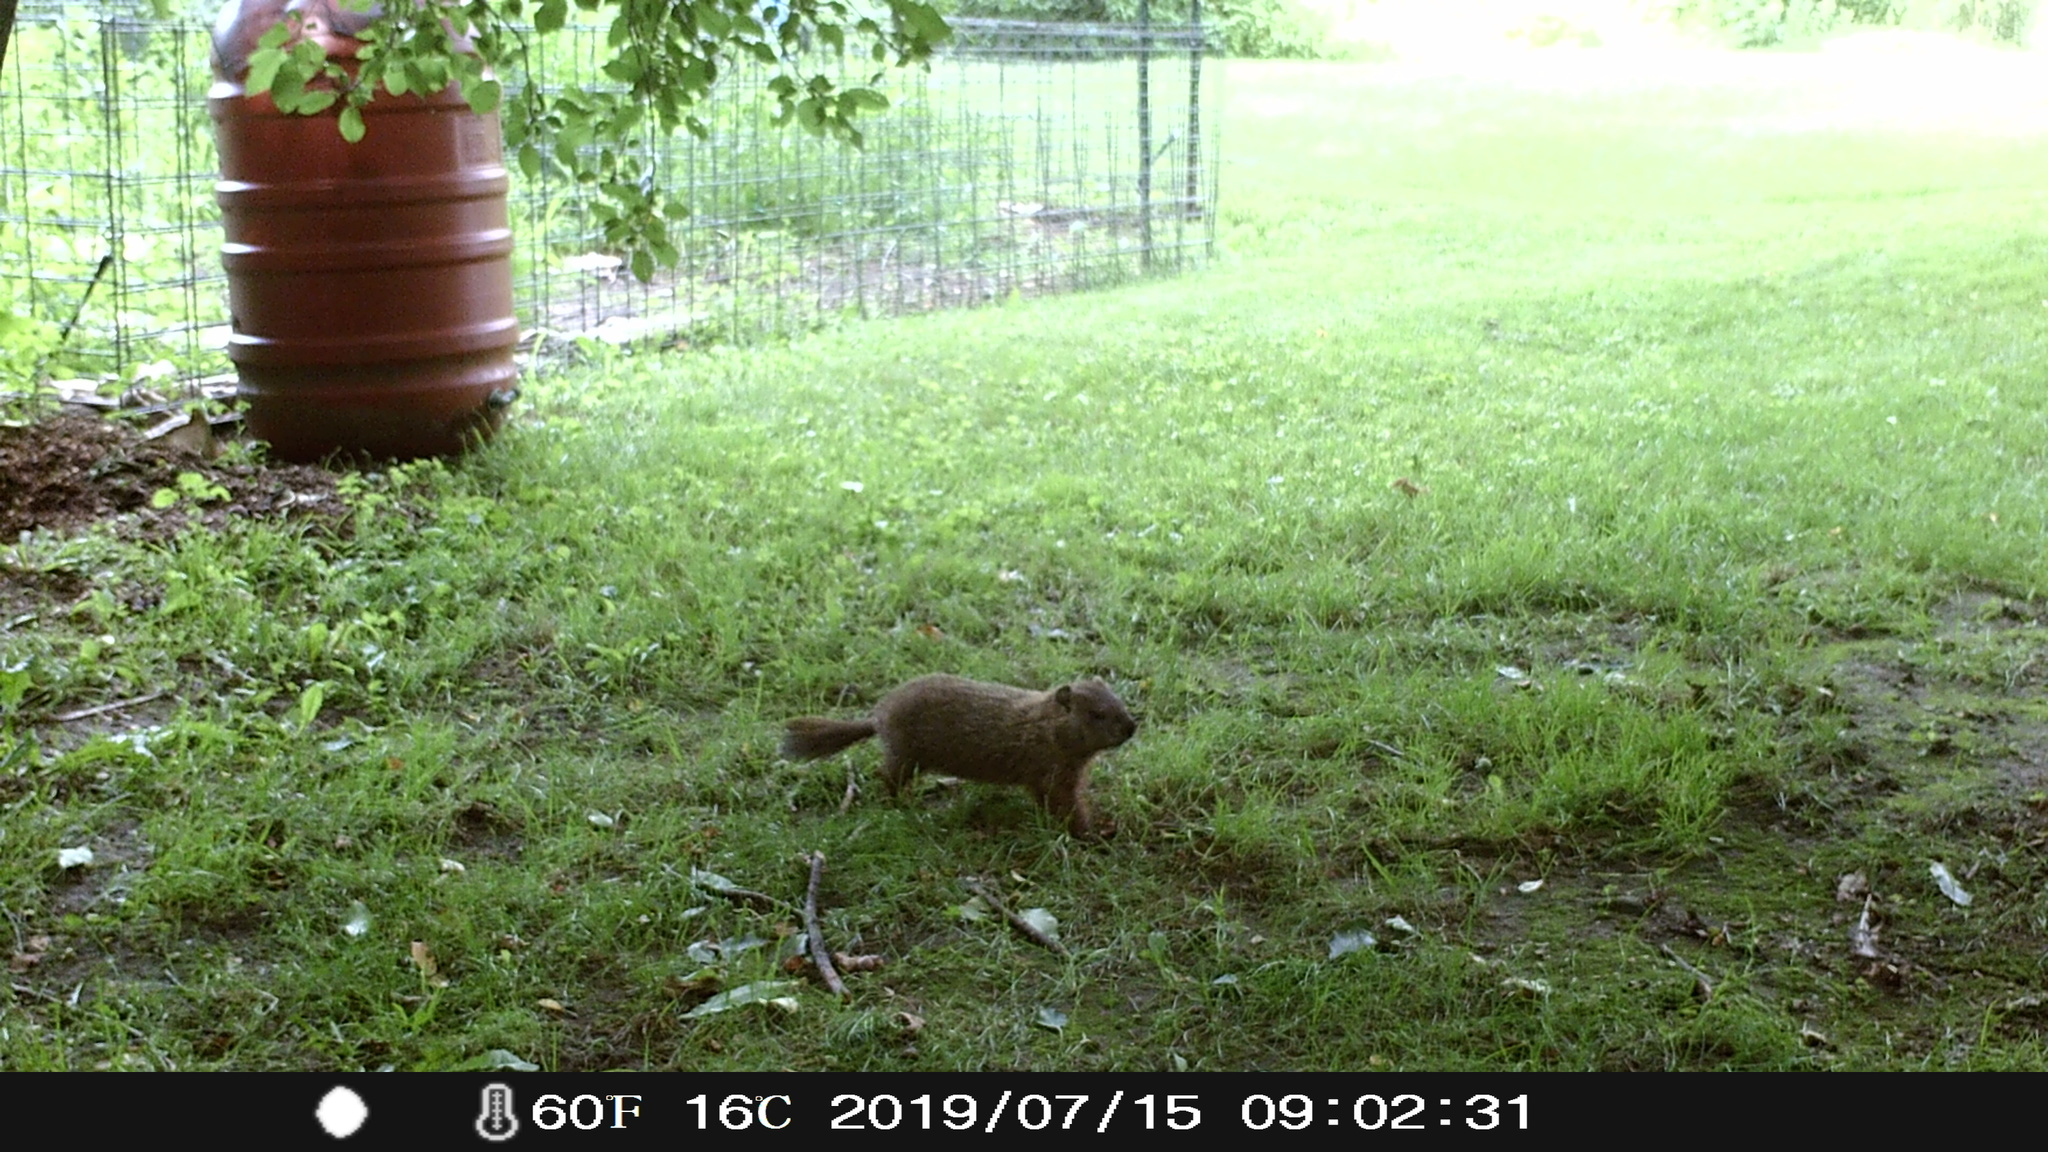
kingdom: Animalia
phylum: Chordata
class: Mammalia
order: Rodentia
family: Sciuridae
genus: Marmota
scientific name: Marmota monax
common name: Groundhog
